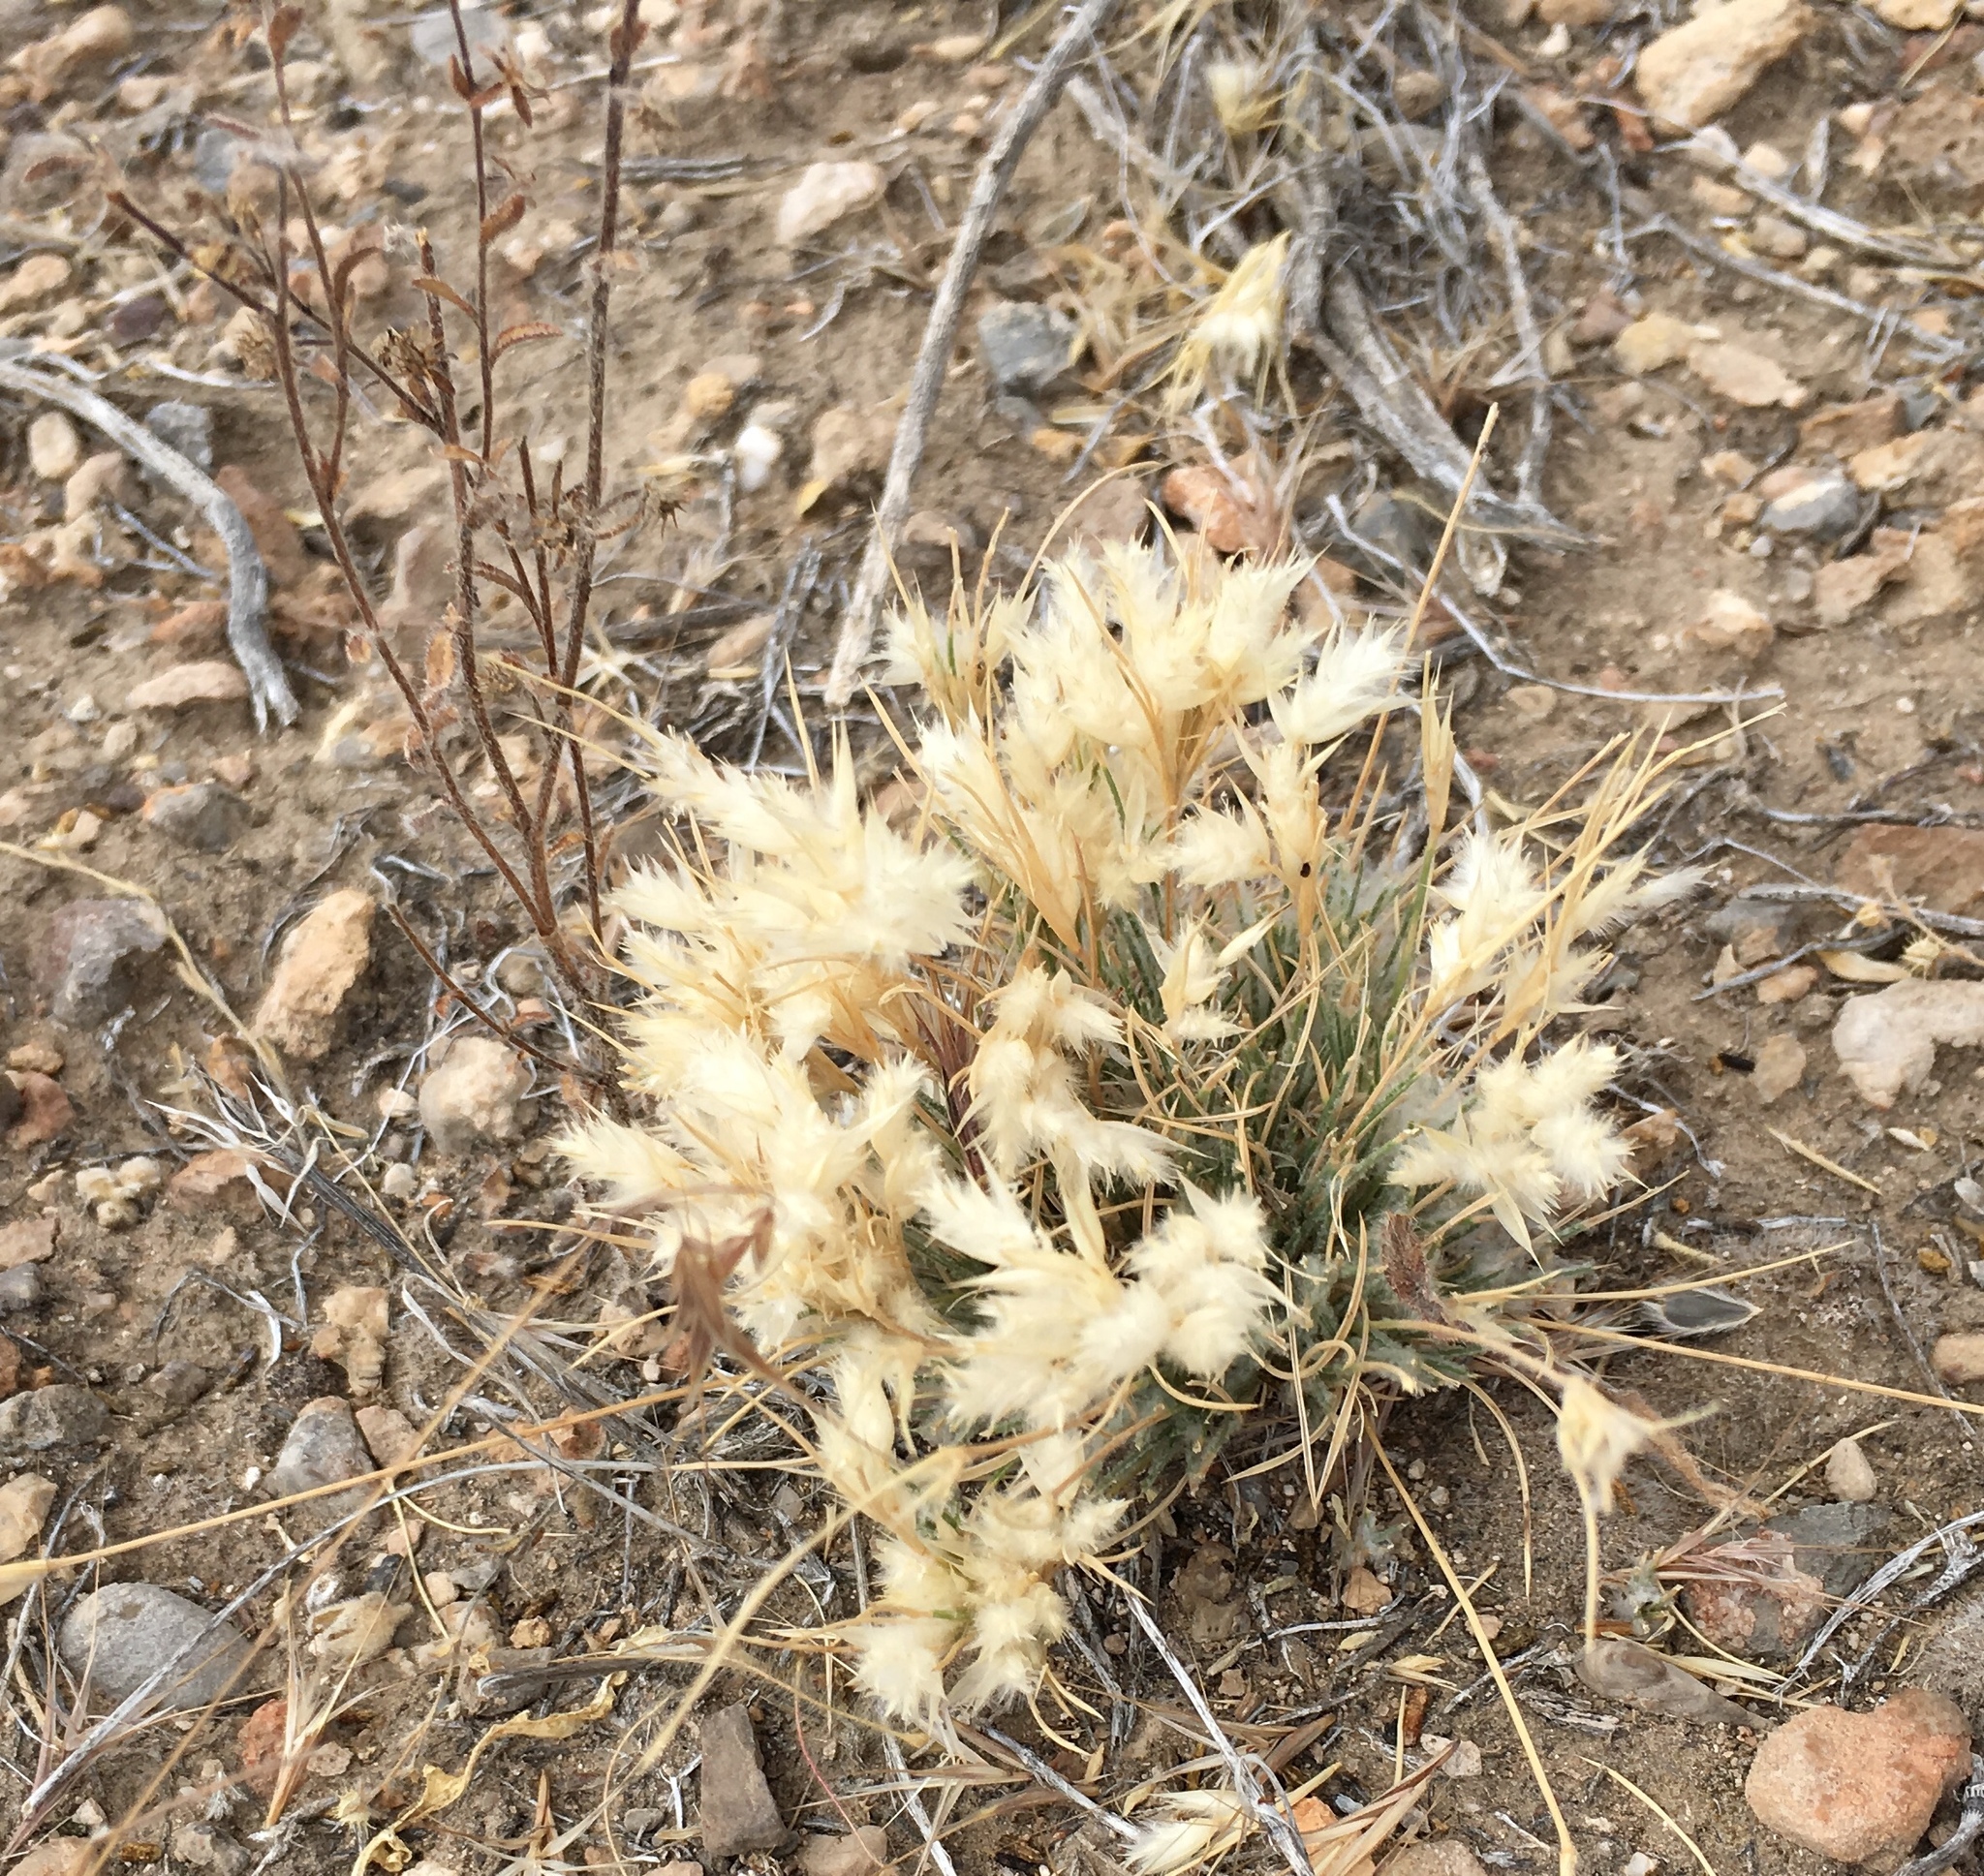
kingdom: Plantae
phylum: Tracheophyta
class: Liliopsida
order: Poales
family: Poaceae
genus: Dasyochloa
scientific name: Dasyochloa pulchella
